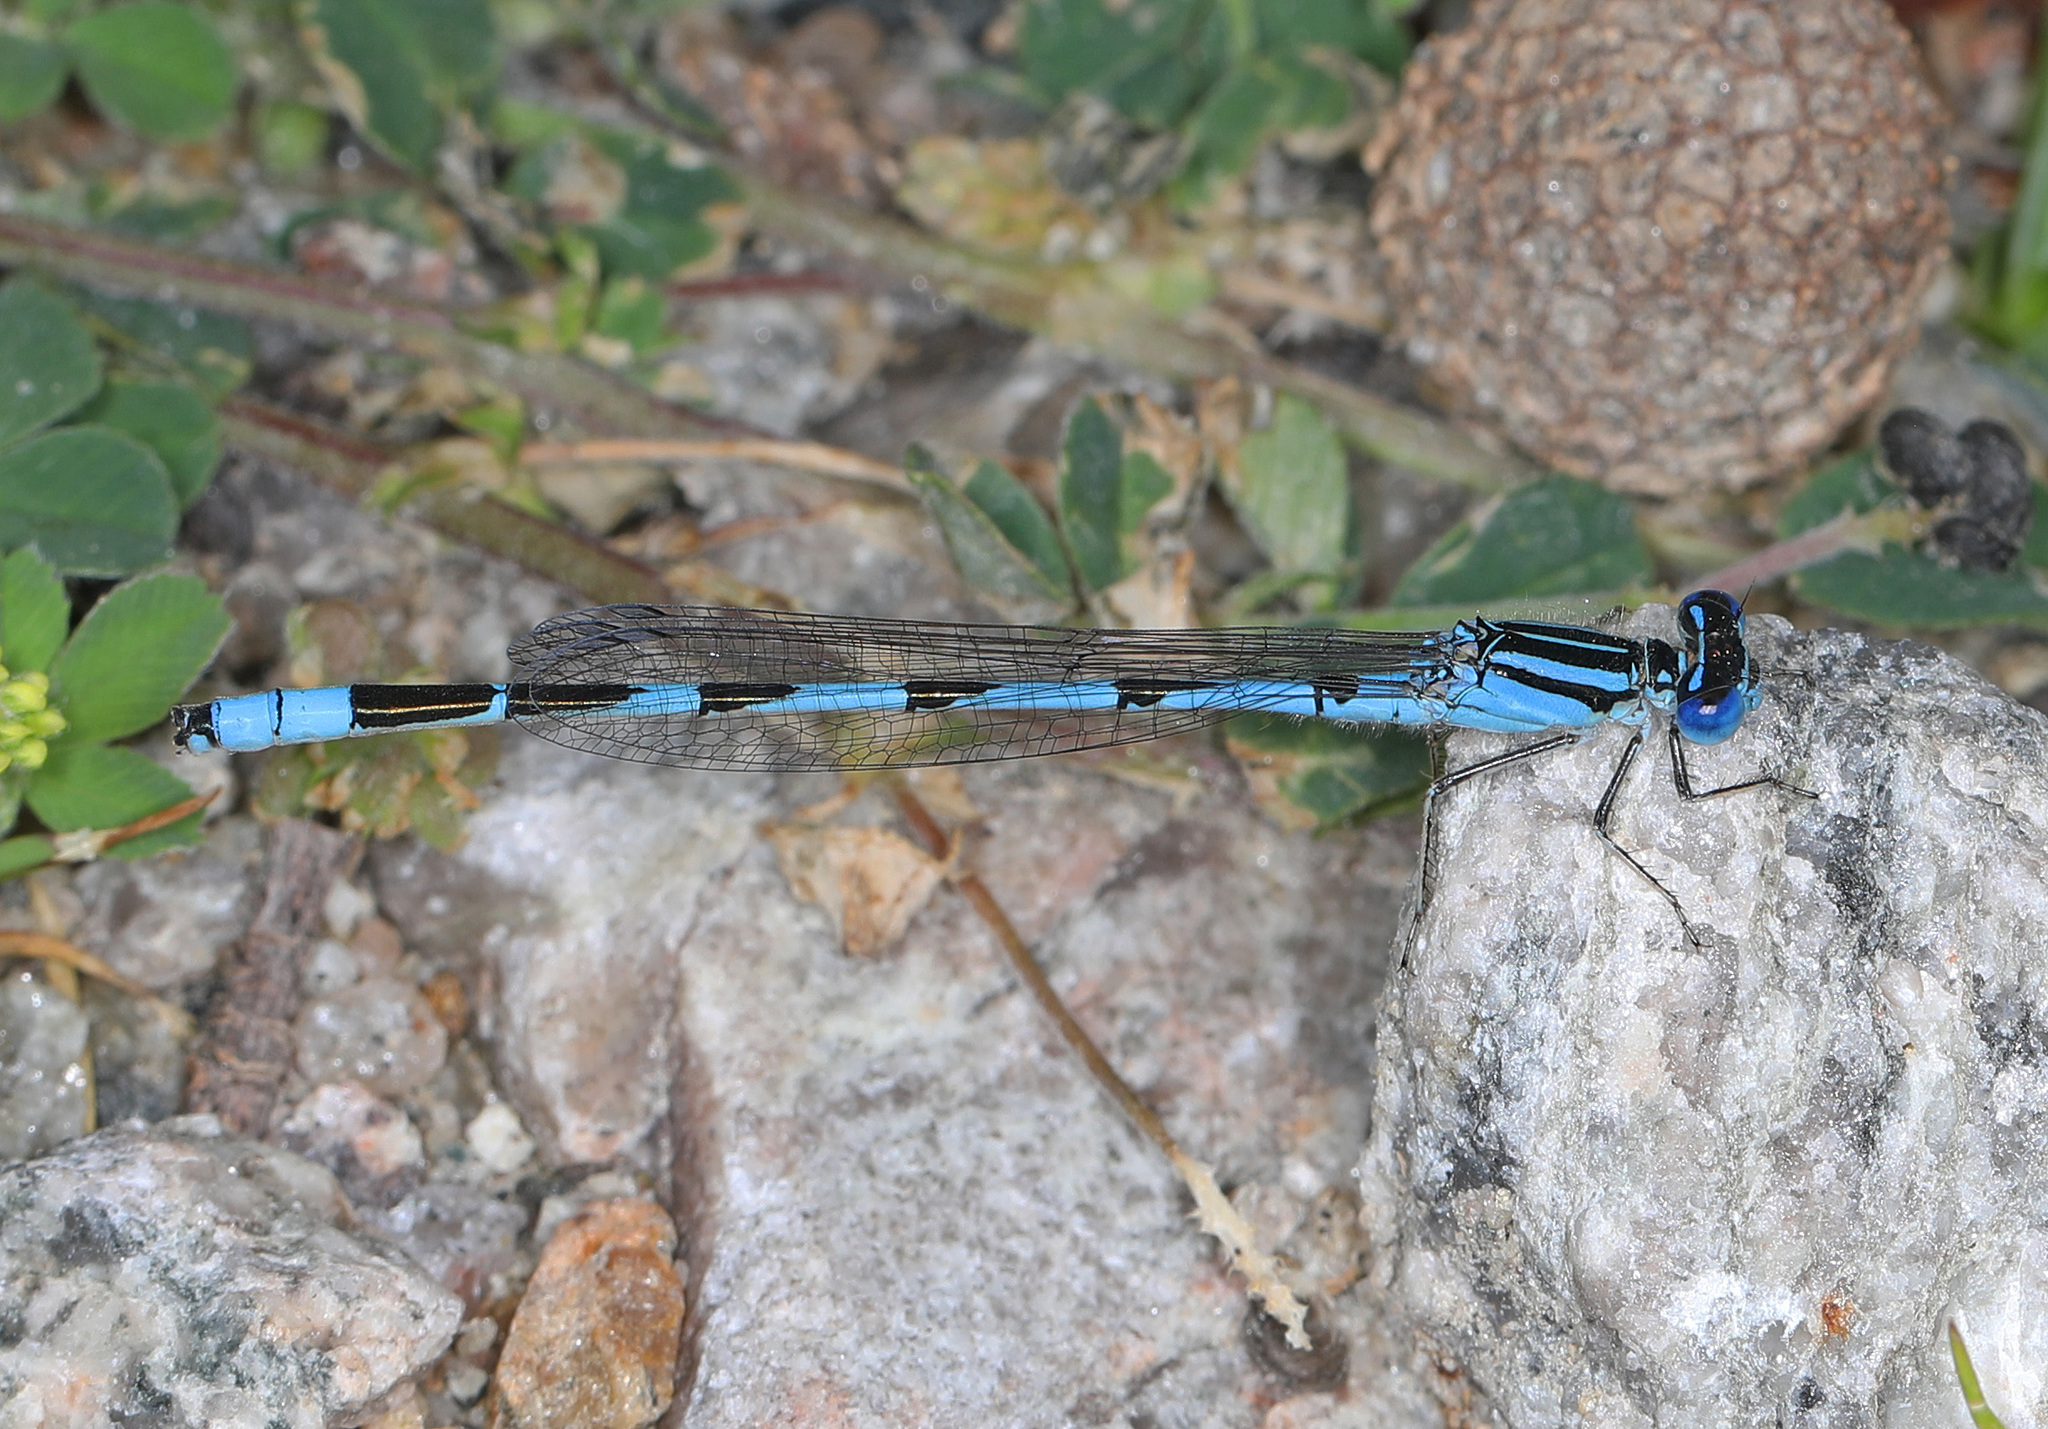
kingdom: Animalia
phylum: Arthropoda
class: Insecta
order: Odonata
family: Coenagrionidae
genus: Enallagma
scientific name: Enallagma durum
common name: Big bluet
